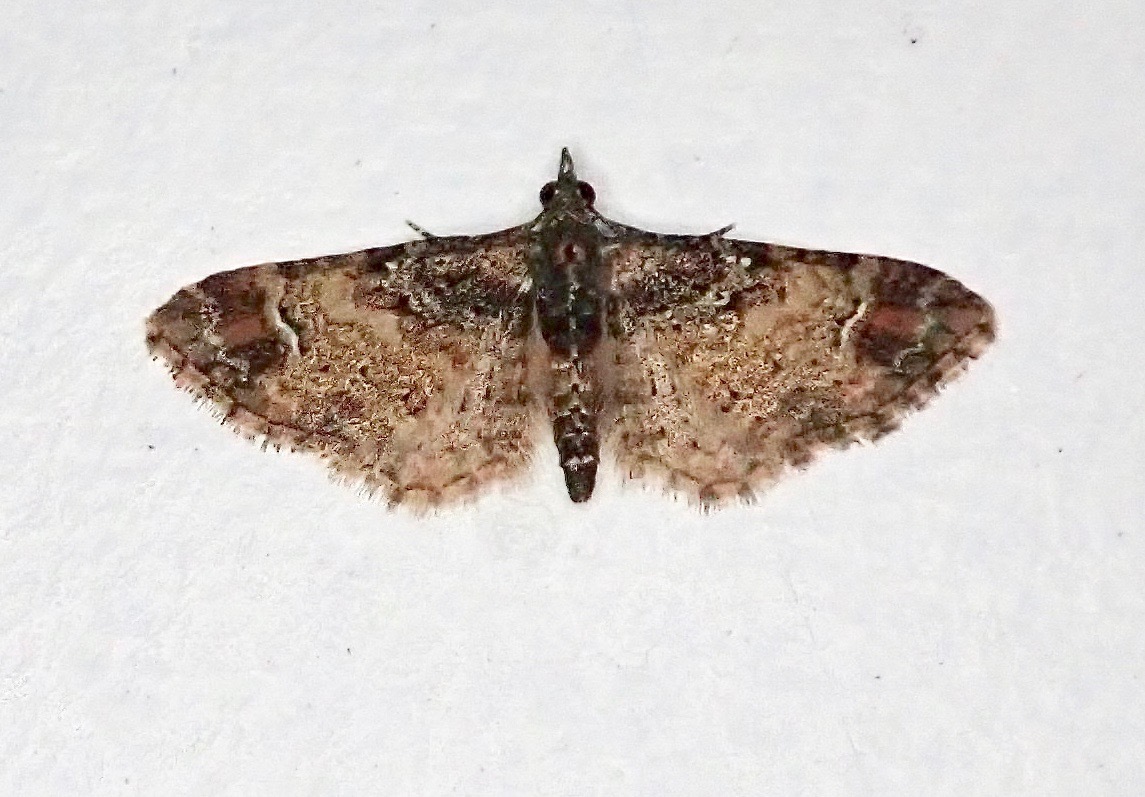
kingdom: Animalia
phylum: Arthropoda
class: Insecta
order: Lepidoptera
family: Geometridae
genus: Pasiphila
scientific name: Pasiphila sandycias
